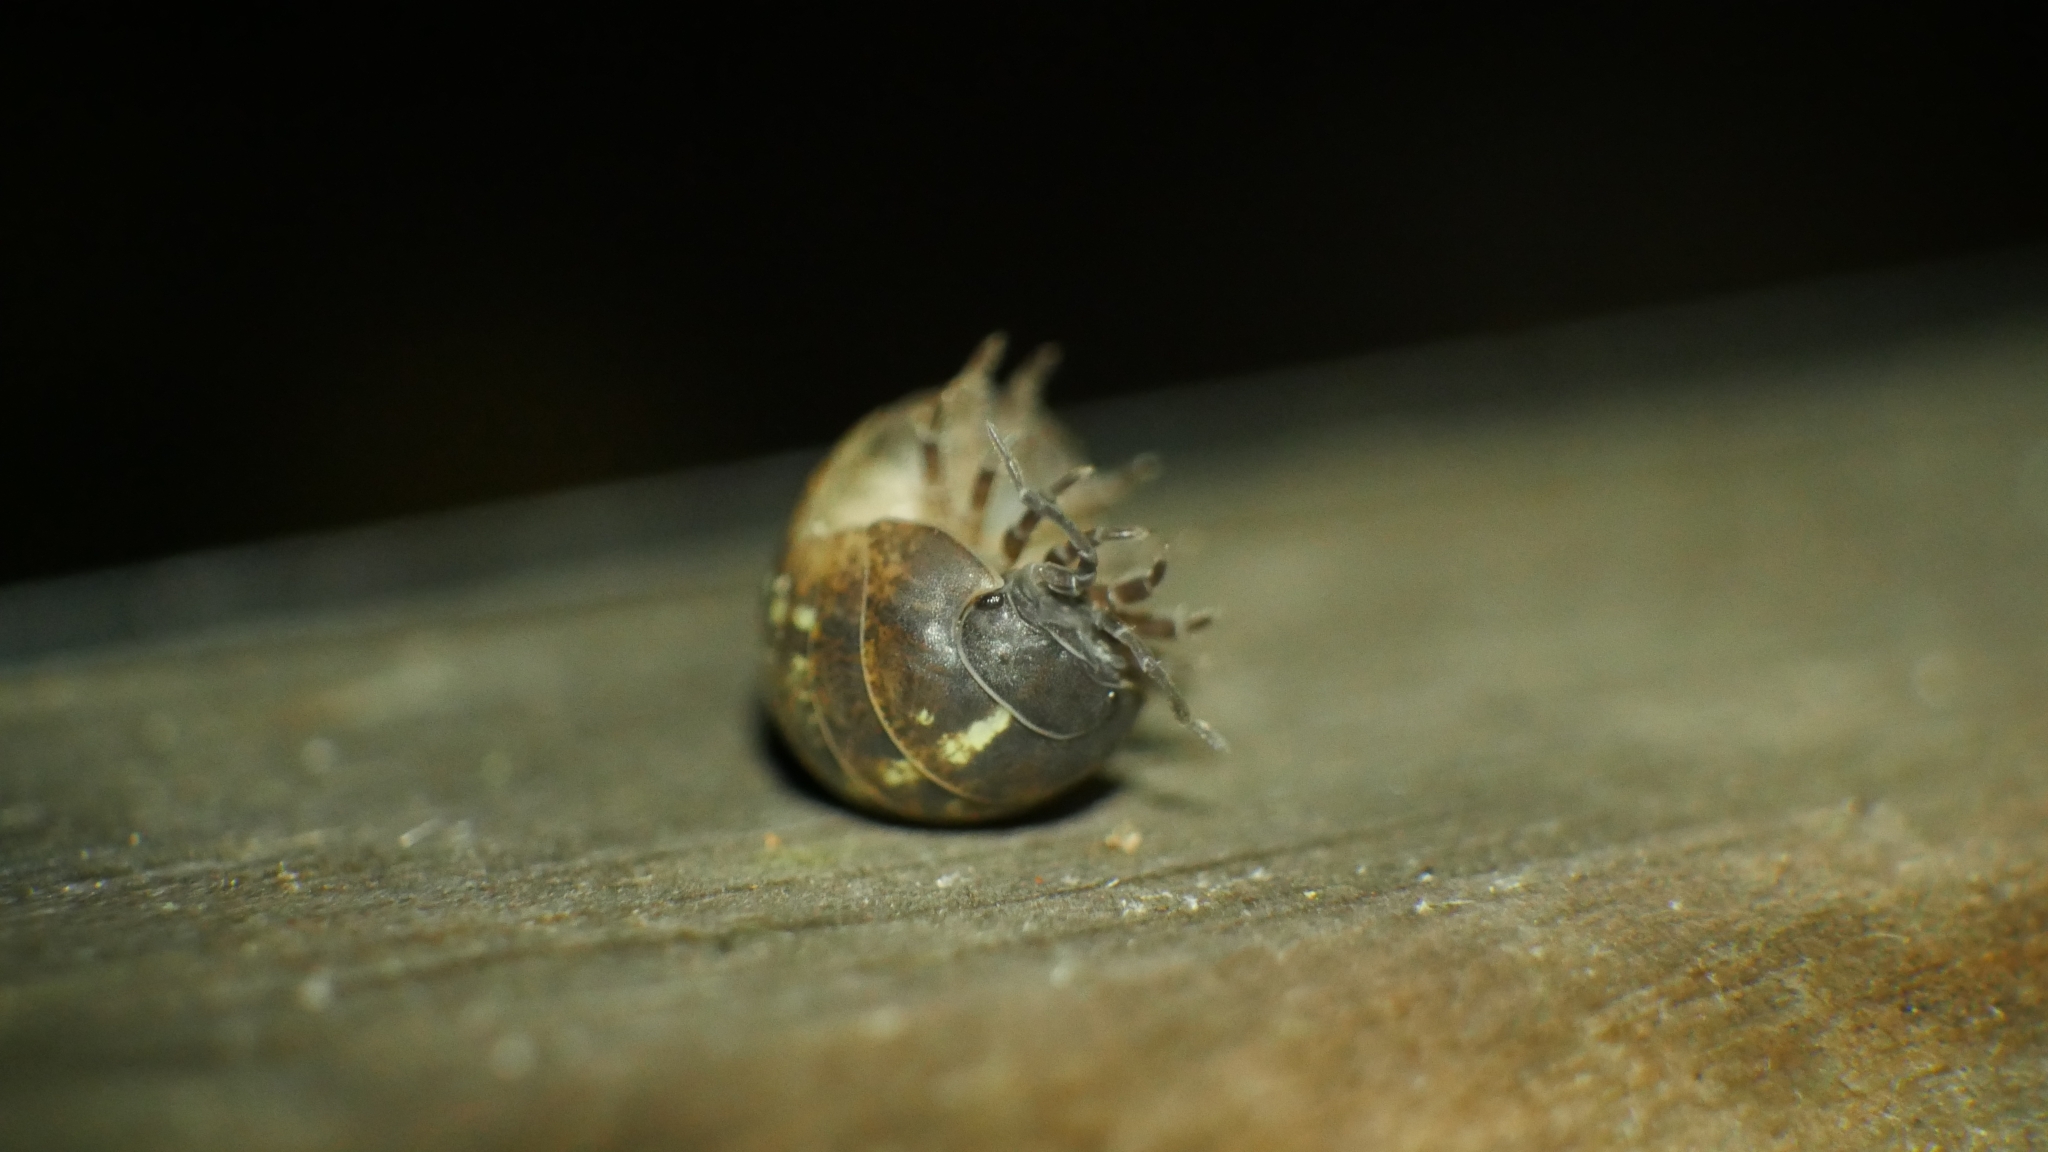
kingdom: Animalia
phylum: Arthropoda
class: Malacostraca
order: Isopoda
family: Armadillidiidae
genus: Armadillidium
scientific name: Armadillidium vulgare
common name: Common pill woodlouse
